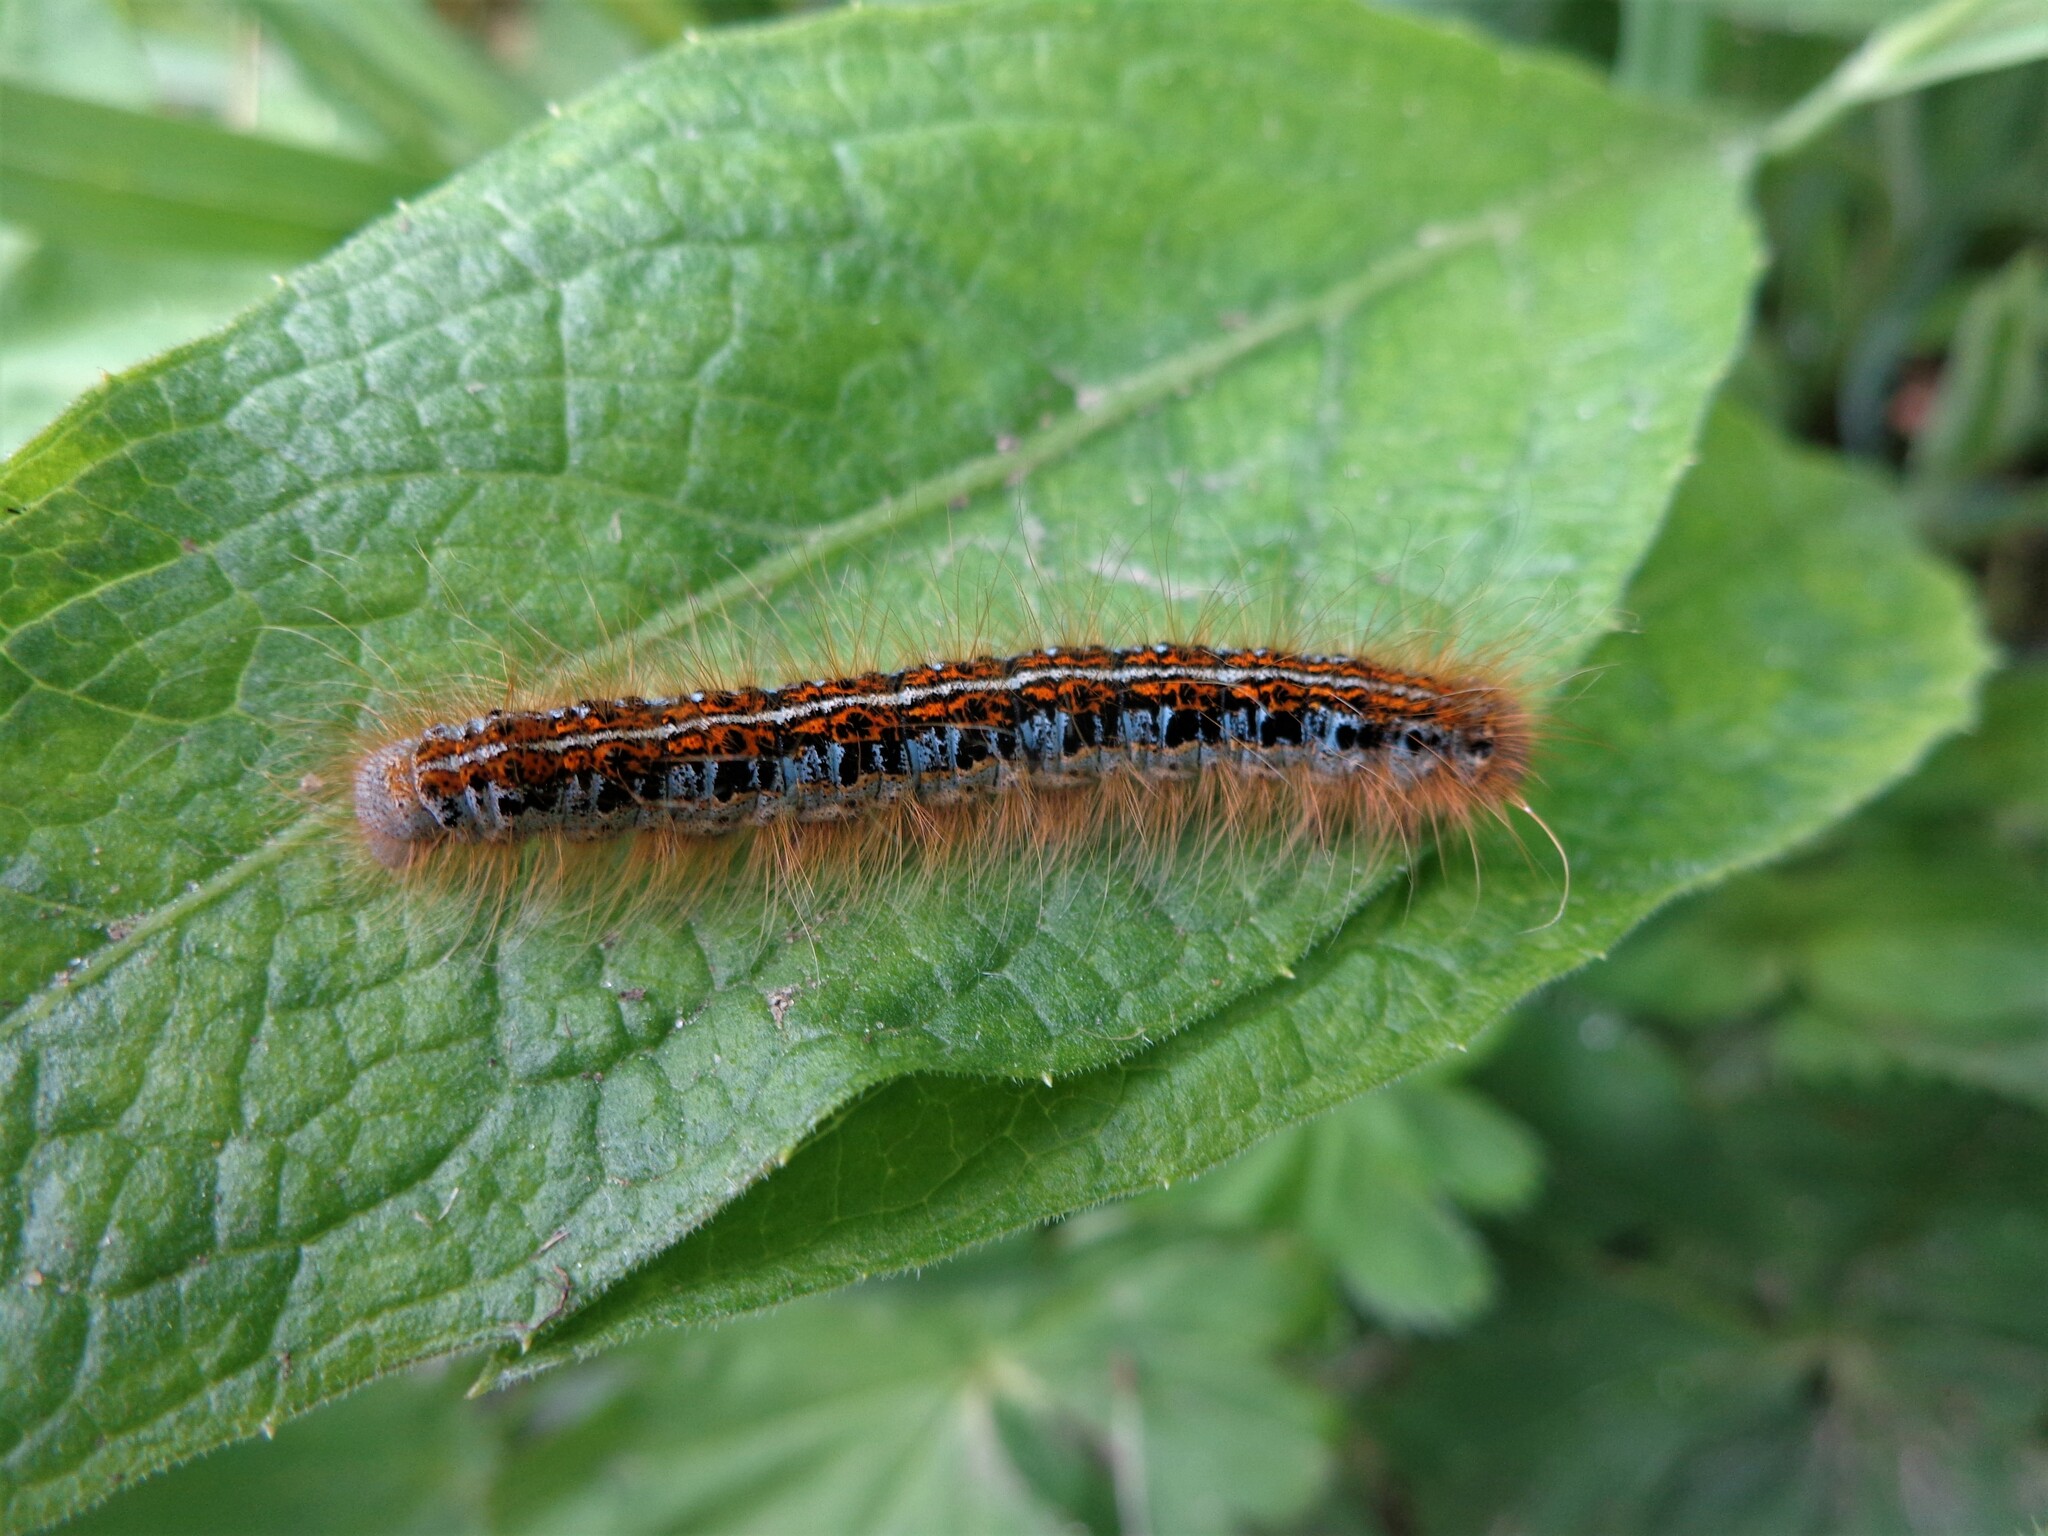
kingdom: Animalia
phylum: Arthropoda
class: Insecta
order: Lepidoptera
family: Lasiocampidae
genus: Malacosoma
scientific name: Malacosoma castrense
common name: Ground lackey
